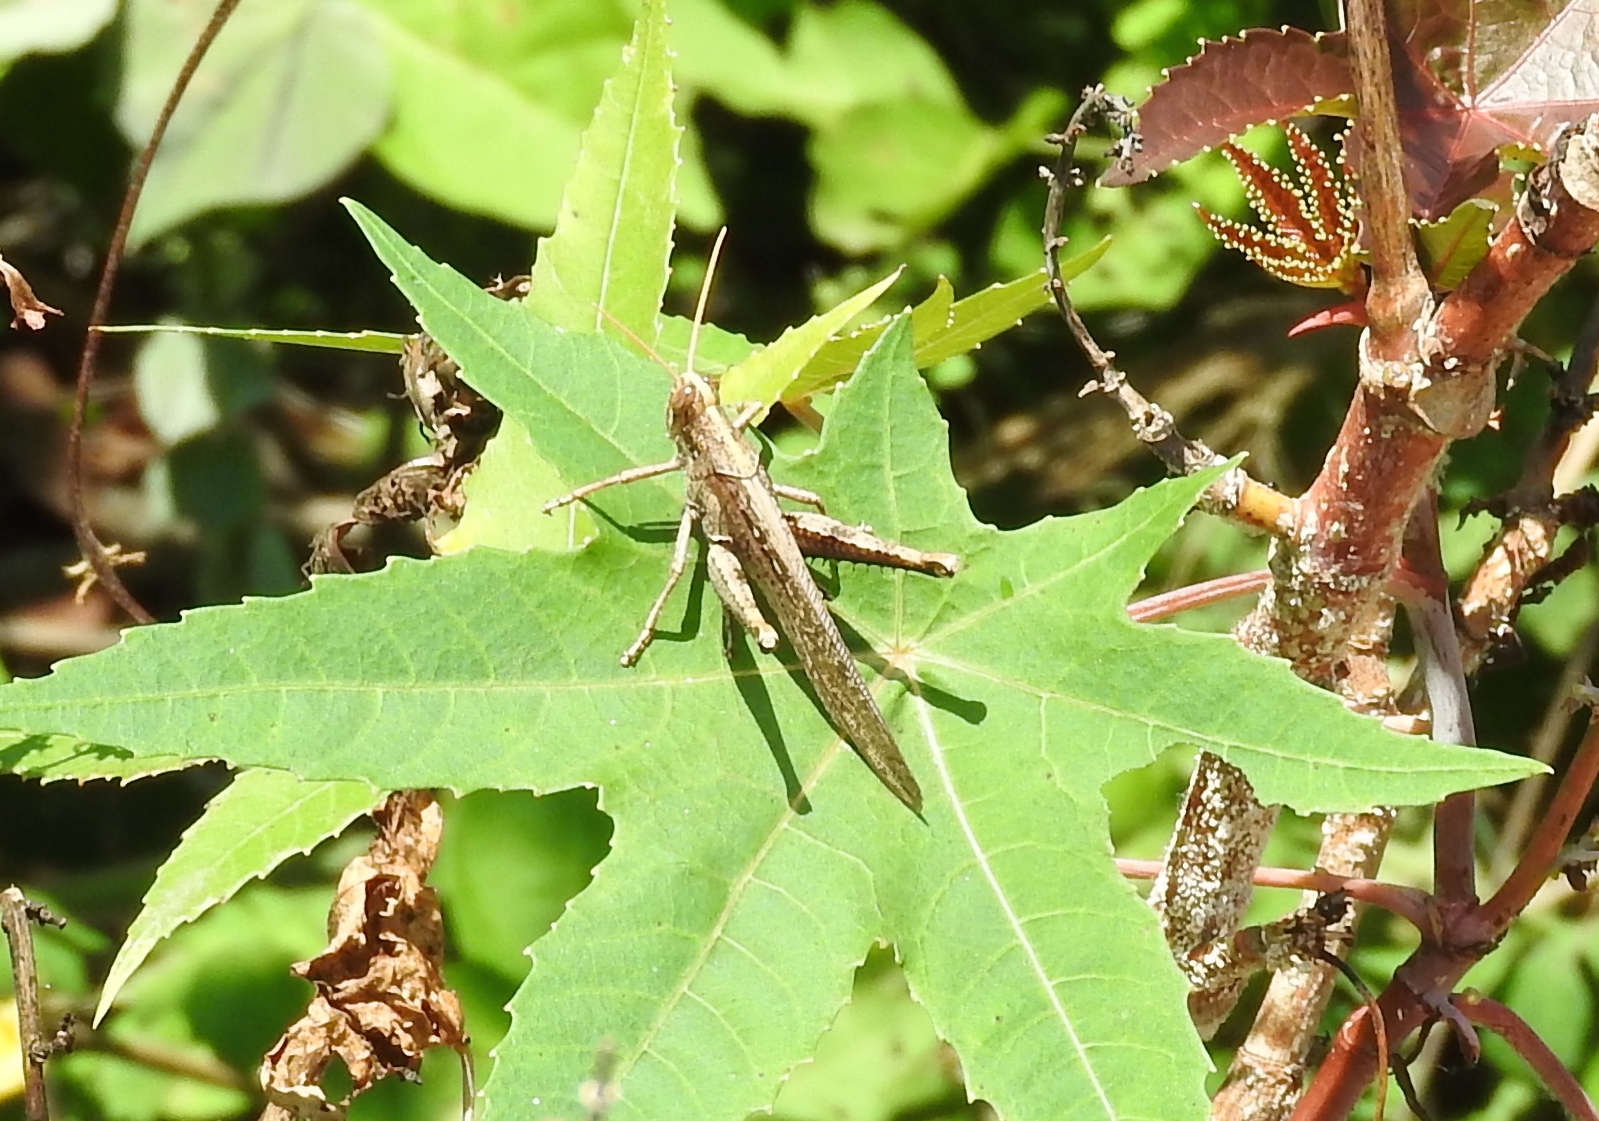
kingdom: Animalia
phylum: Arthropoda
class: Insecta
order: Orthoptera
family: Acrididae
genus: Schistocerca
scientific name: Schistocerca nitens
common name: Vagrant grasshopper
